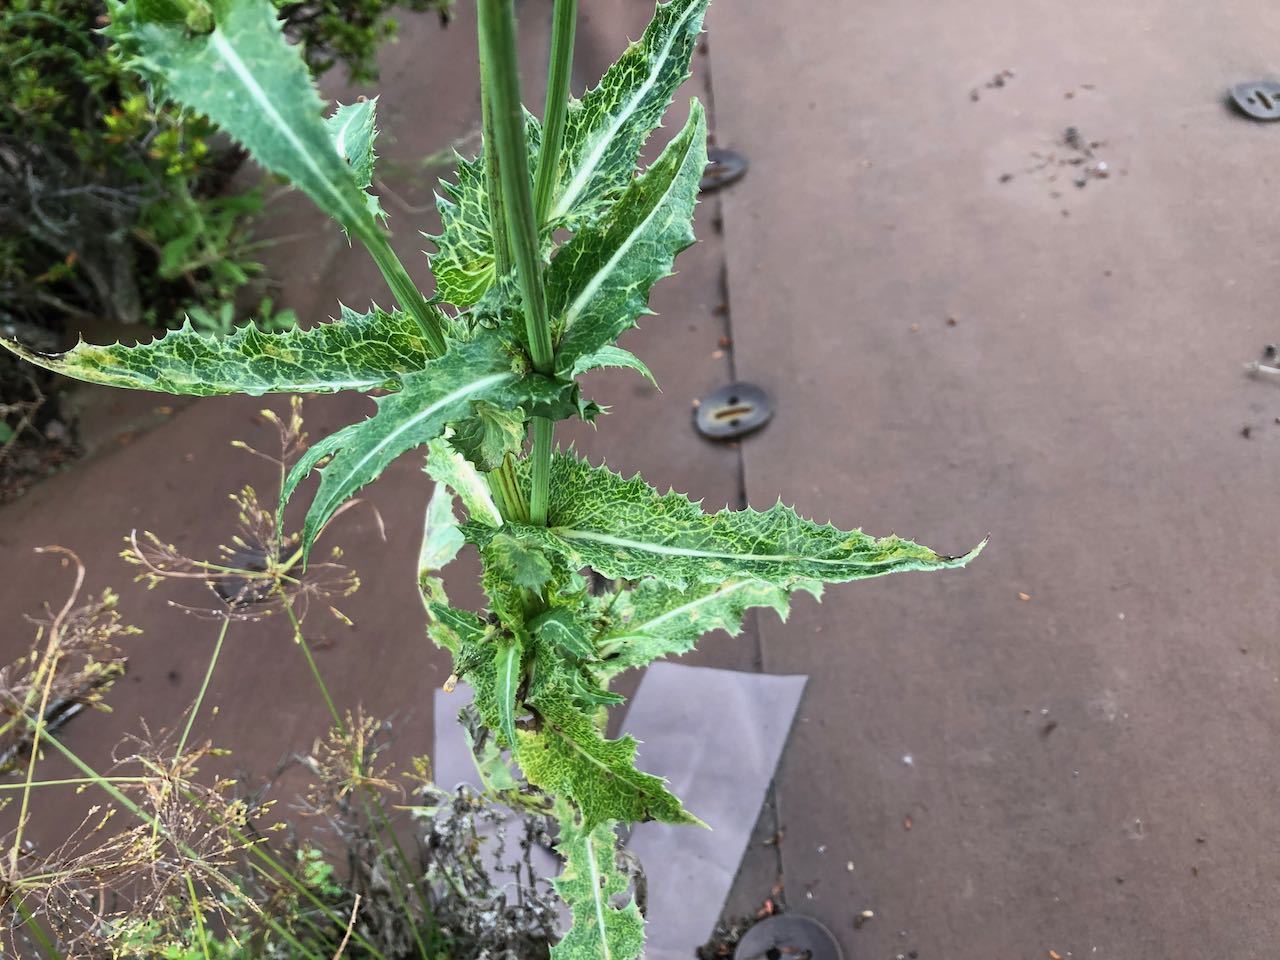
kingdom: Plantae
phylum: Tracheophyta
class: Magnoliopsida
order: Asterales
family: Asteraceae
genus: Sonchus
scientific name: Sonchus asper
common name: Prickly sow-thistle
